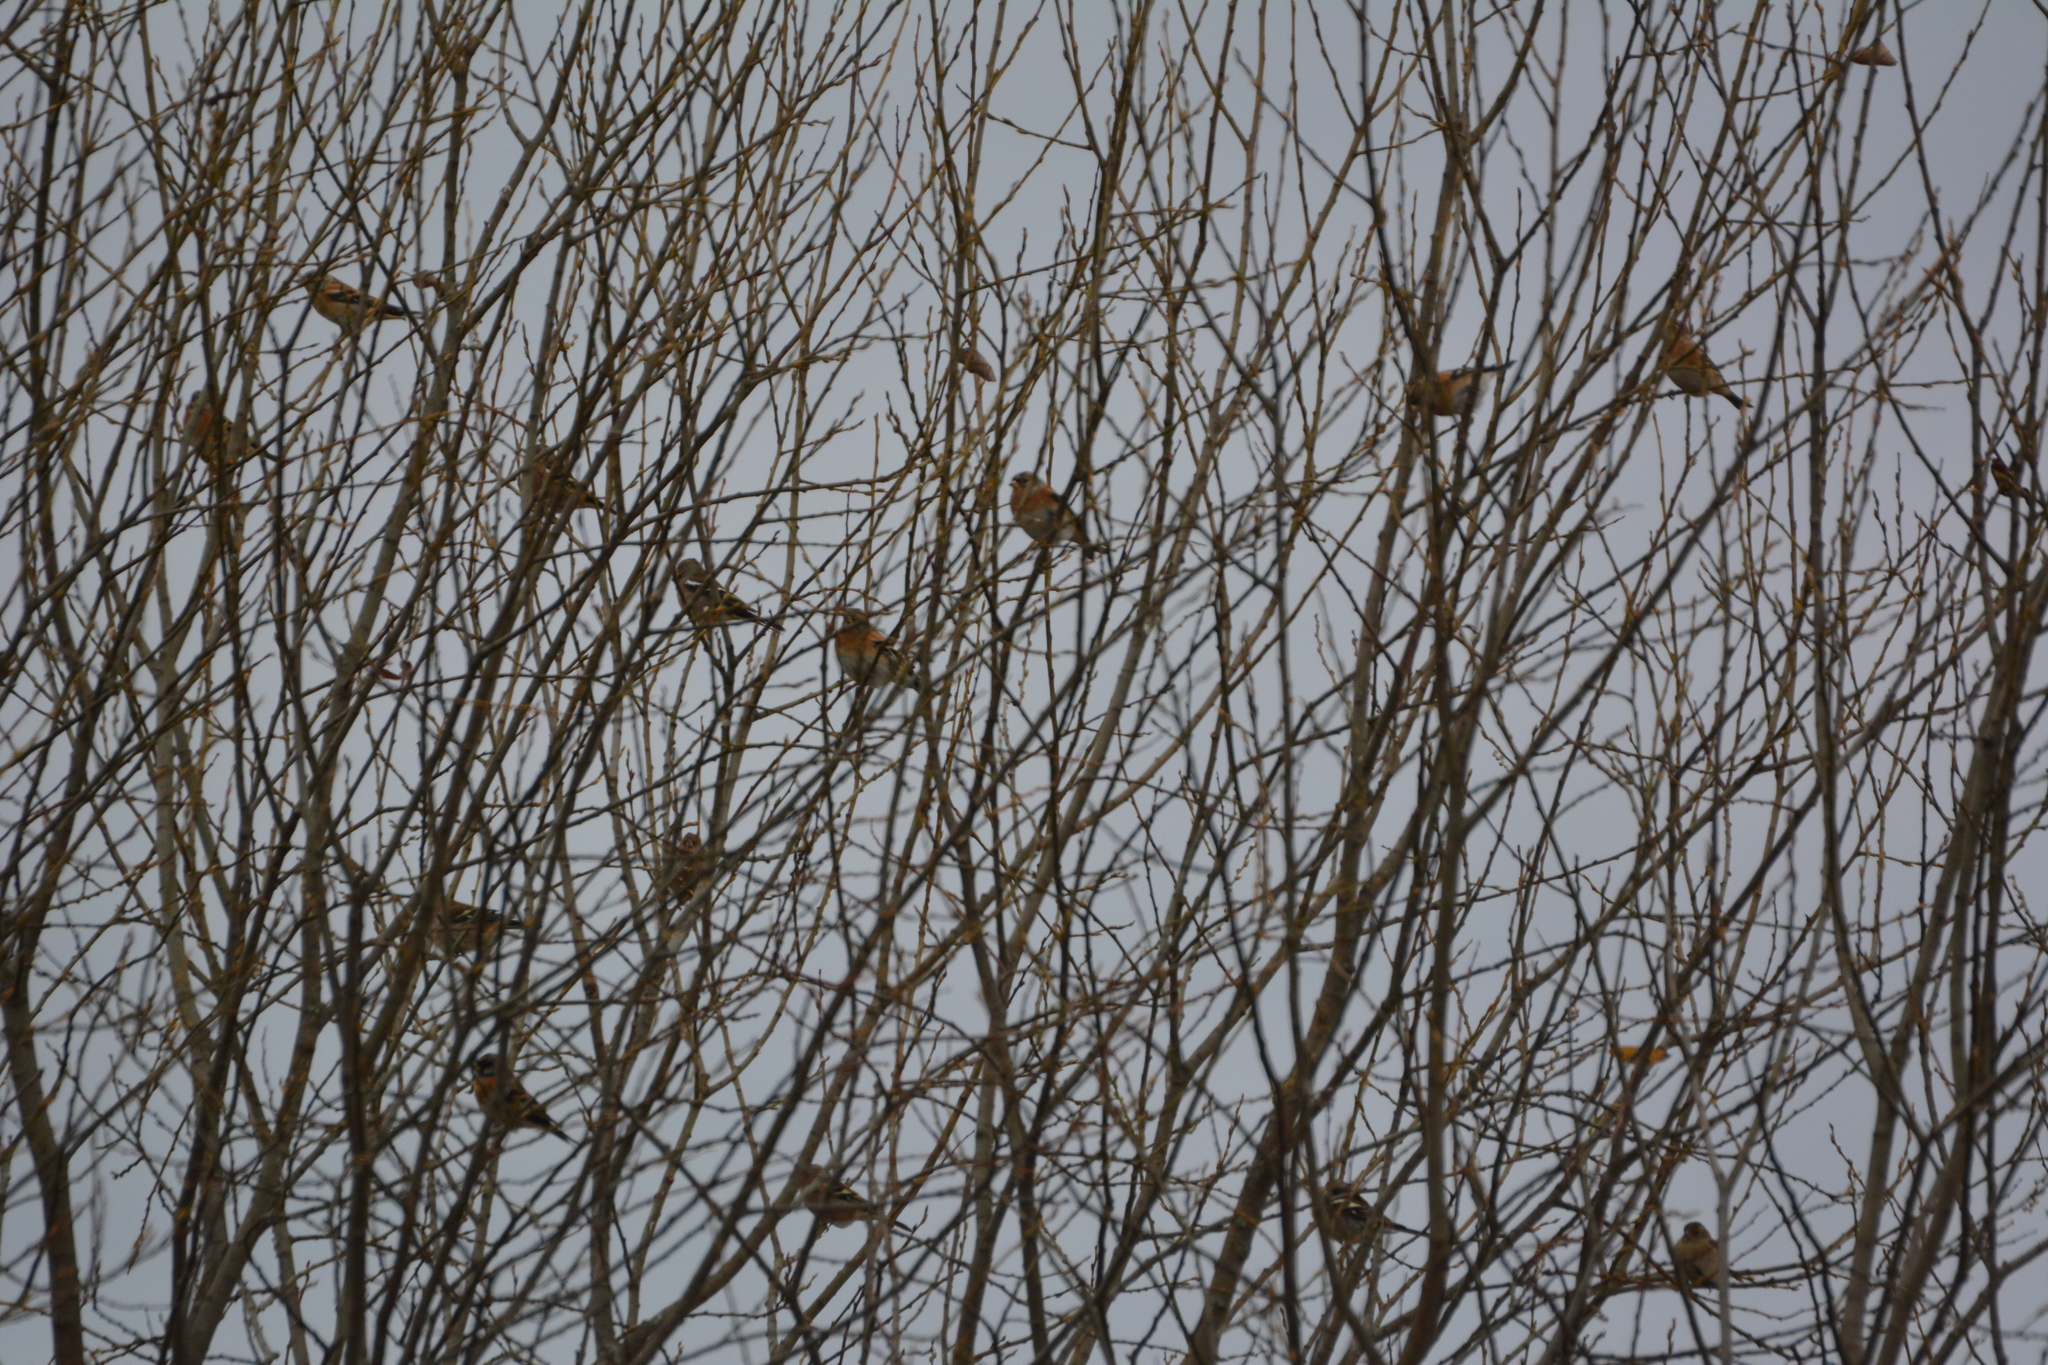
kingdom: Animalia
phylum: Chordata
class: Aves
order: Passeriformes
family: Fringillidae
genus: Fringilla
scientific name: Fringilla montifringilla
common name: Brambling
